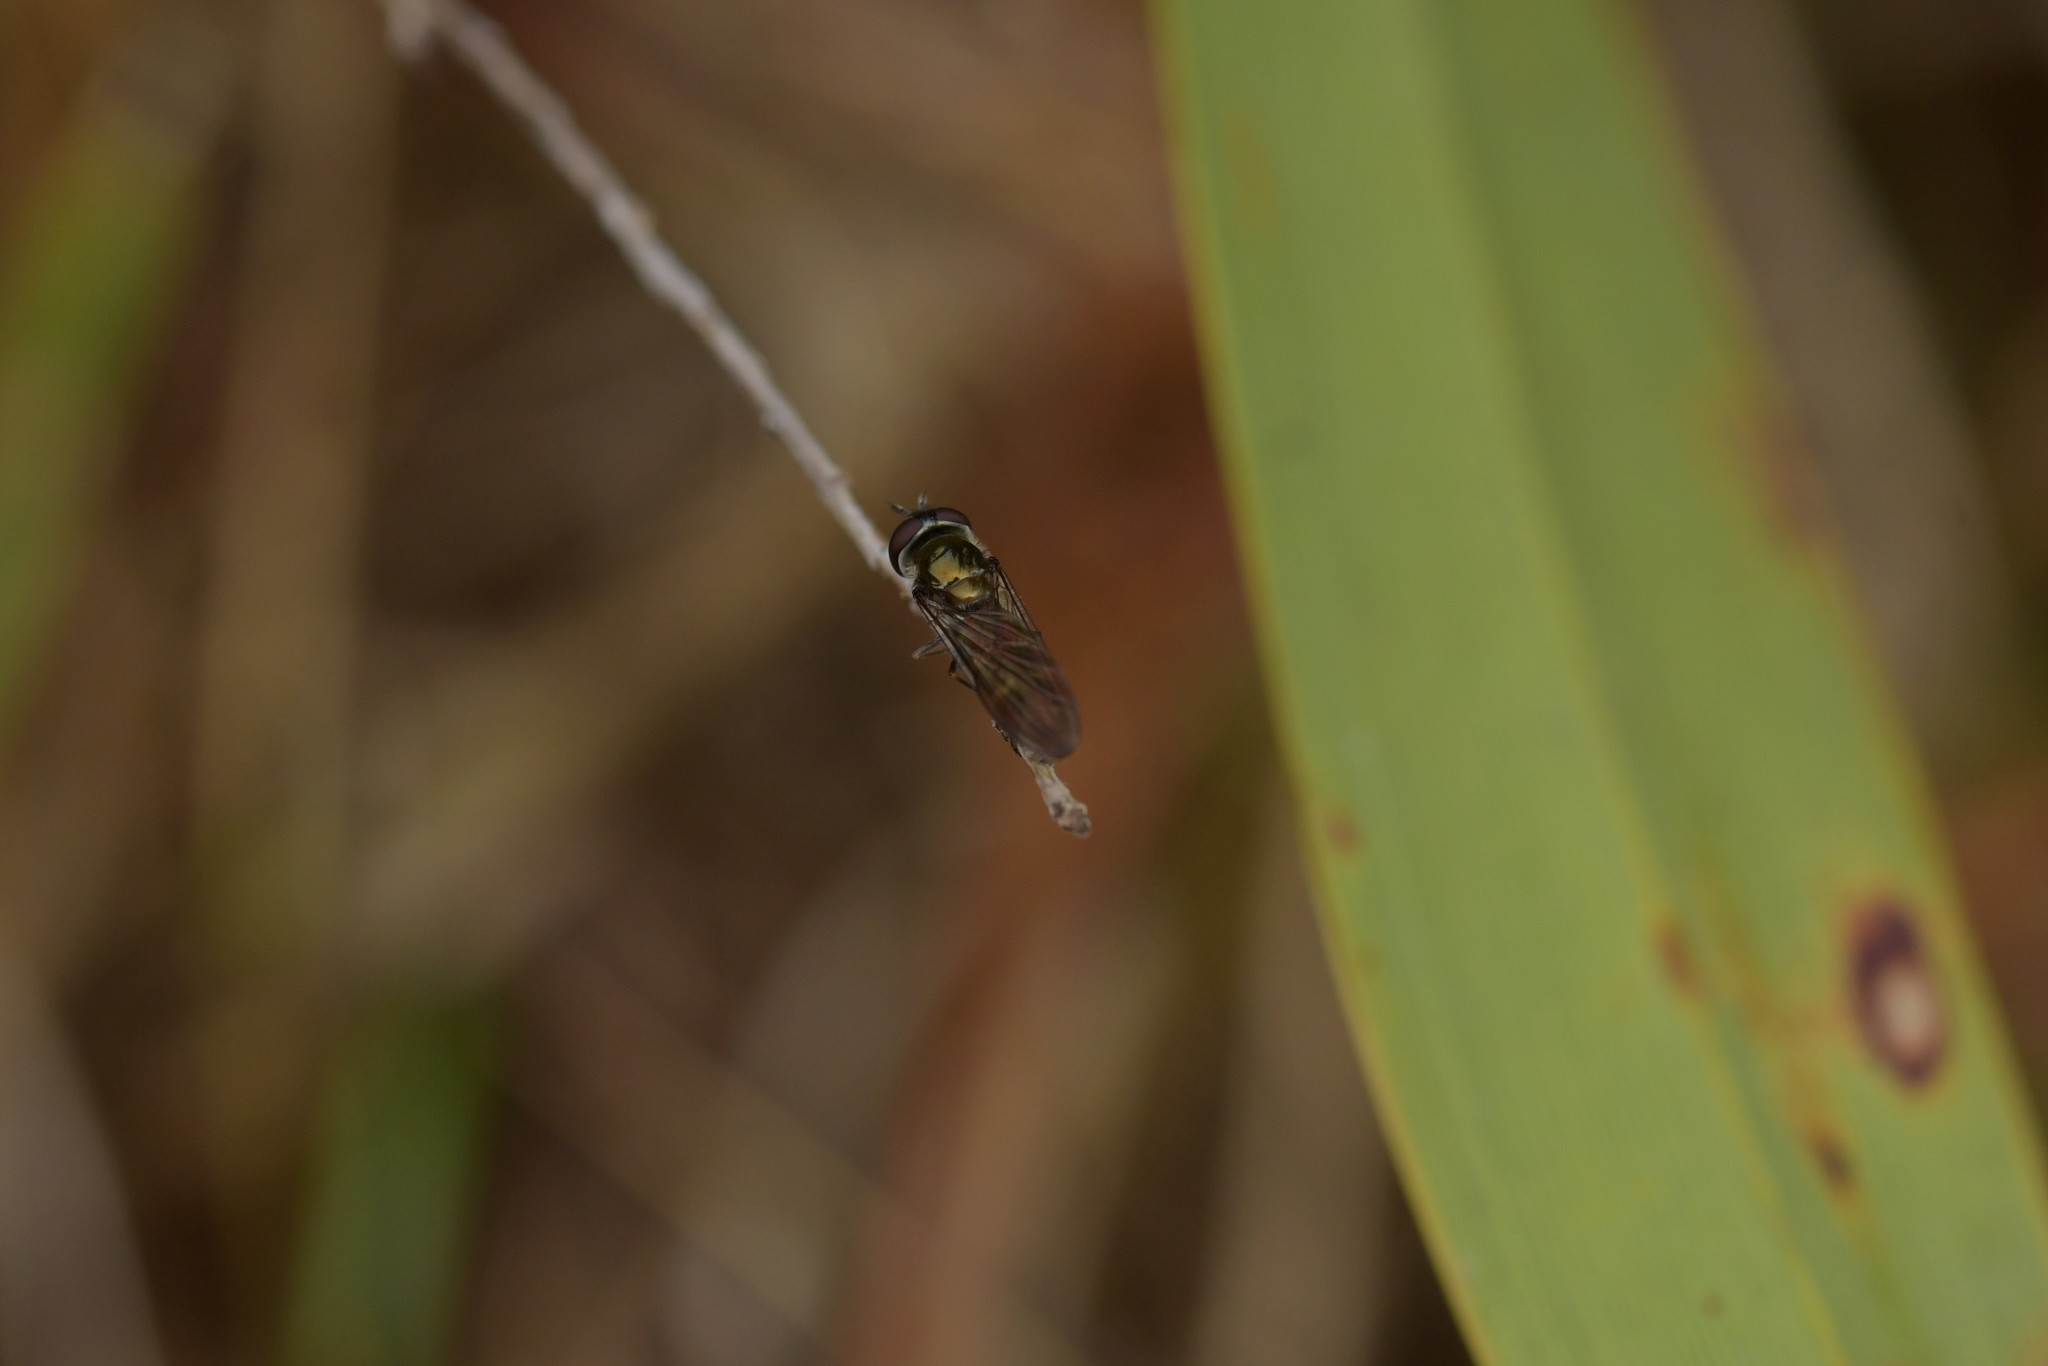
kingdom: Animalia
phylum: Arthropoda
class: Insecta
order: Diptera
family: Syrphidae
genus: Melangyna
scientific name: Melangyna novaezelandiae
